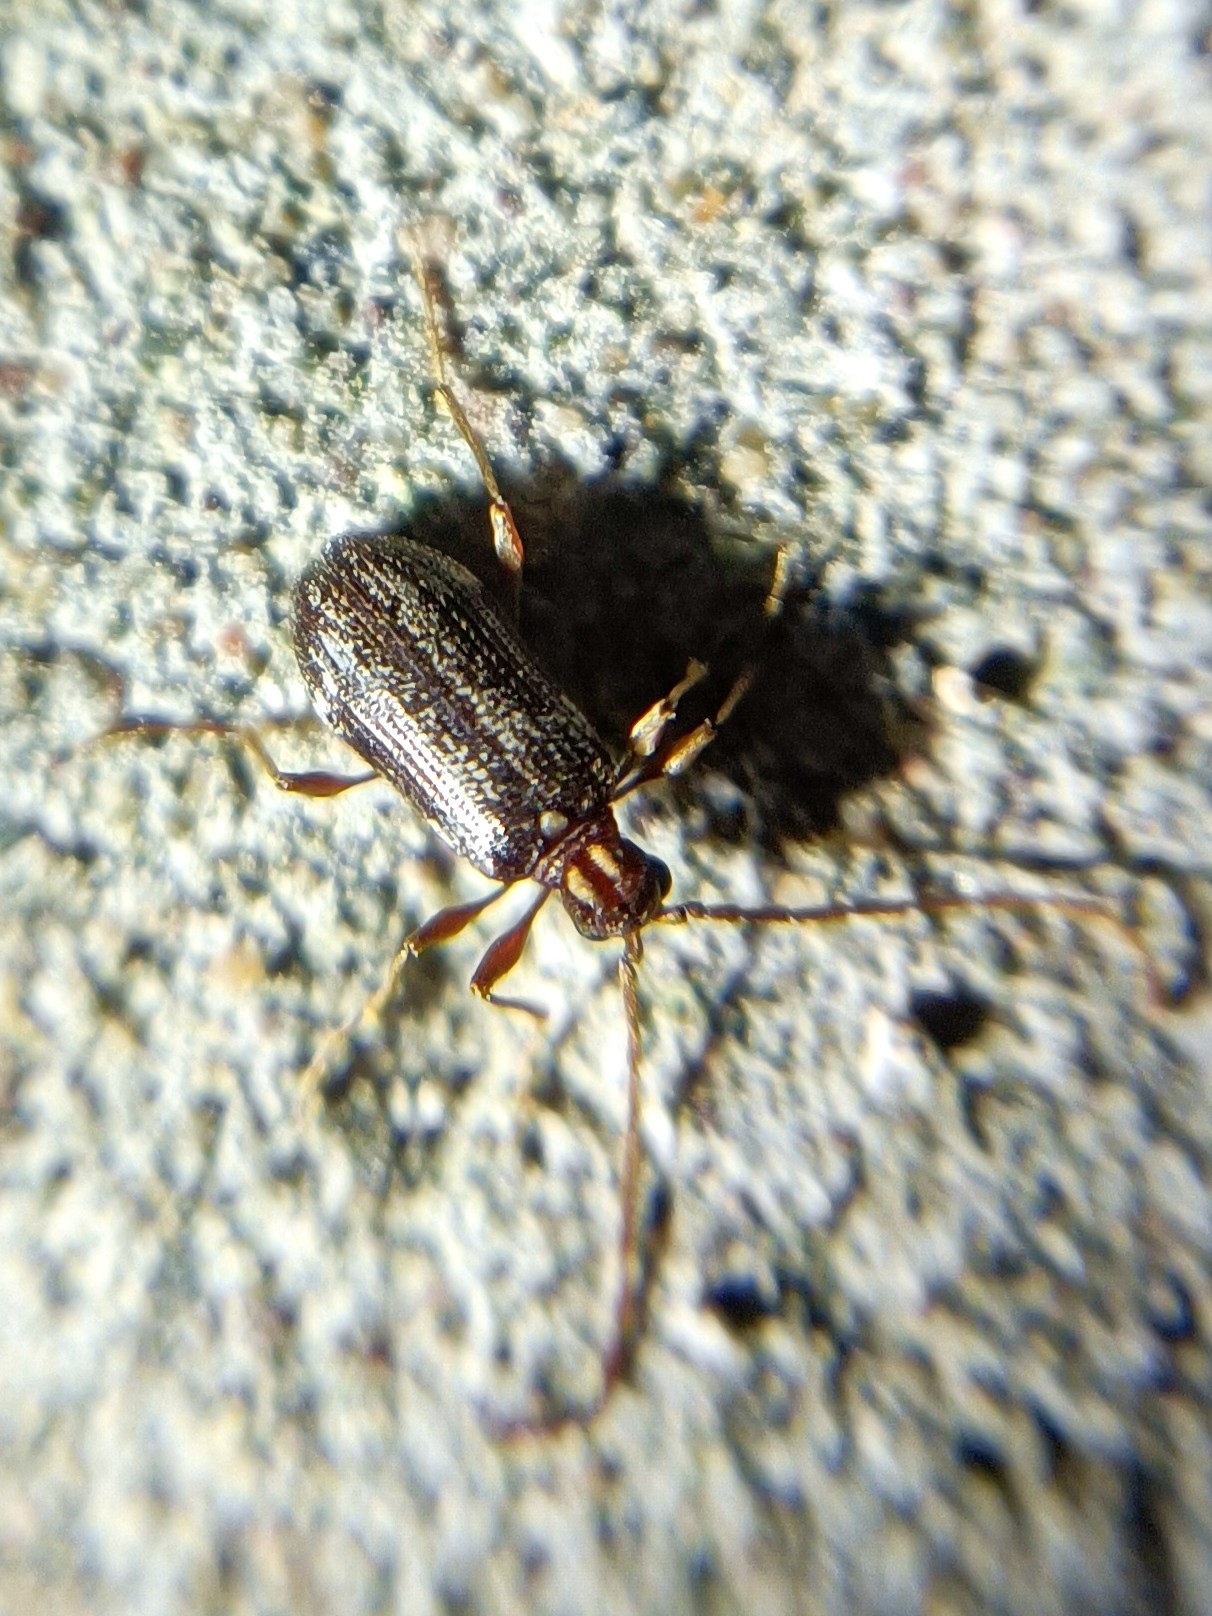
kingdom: Animalia
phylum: Arthropoda
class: Insecta
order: Coleoptera
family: Ptinidae
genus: Ptinus
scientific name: Ptinus raptor
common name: Eastern spider beetle
